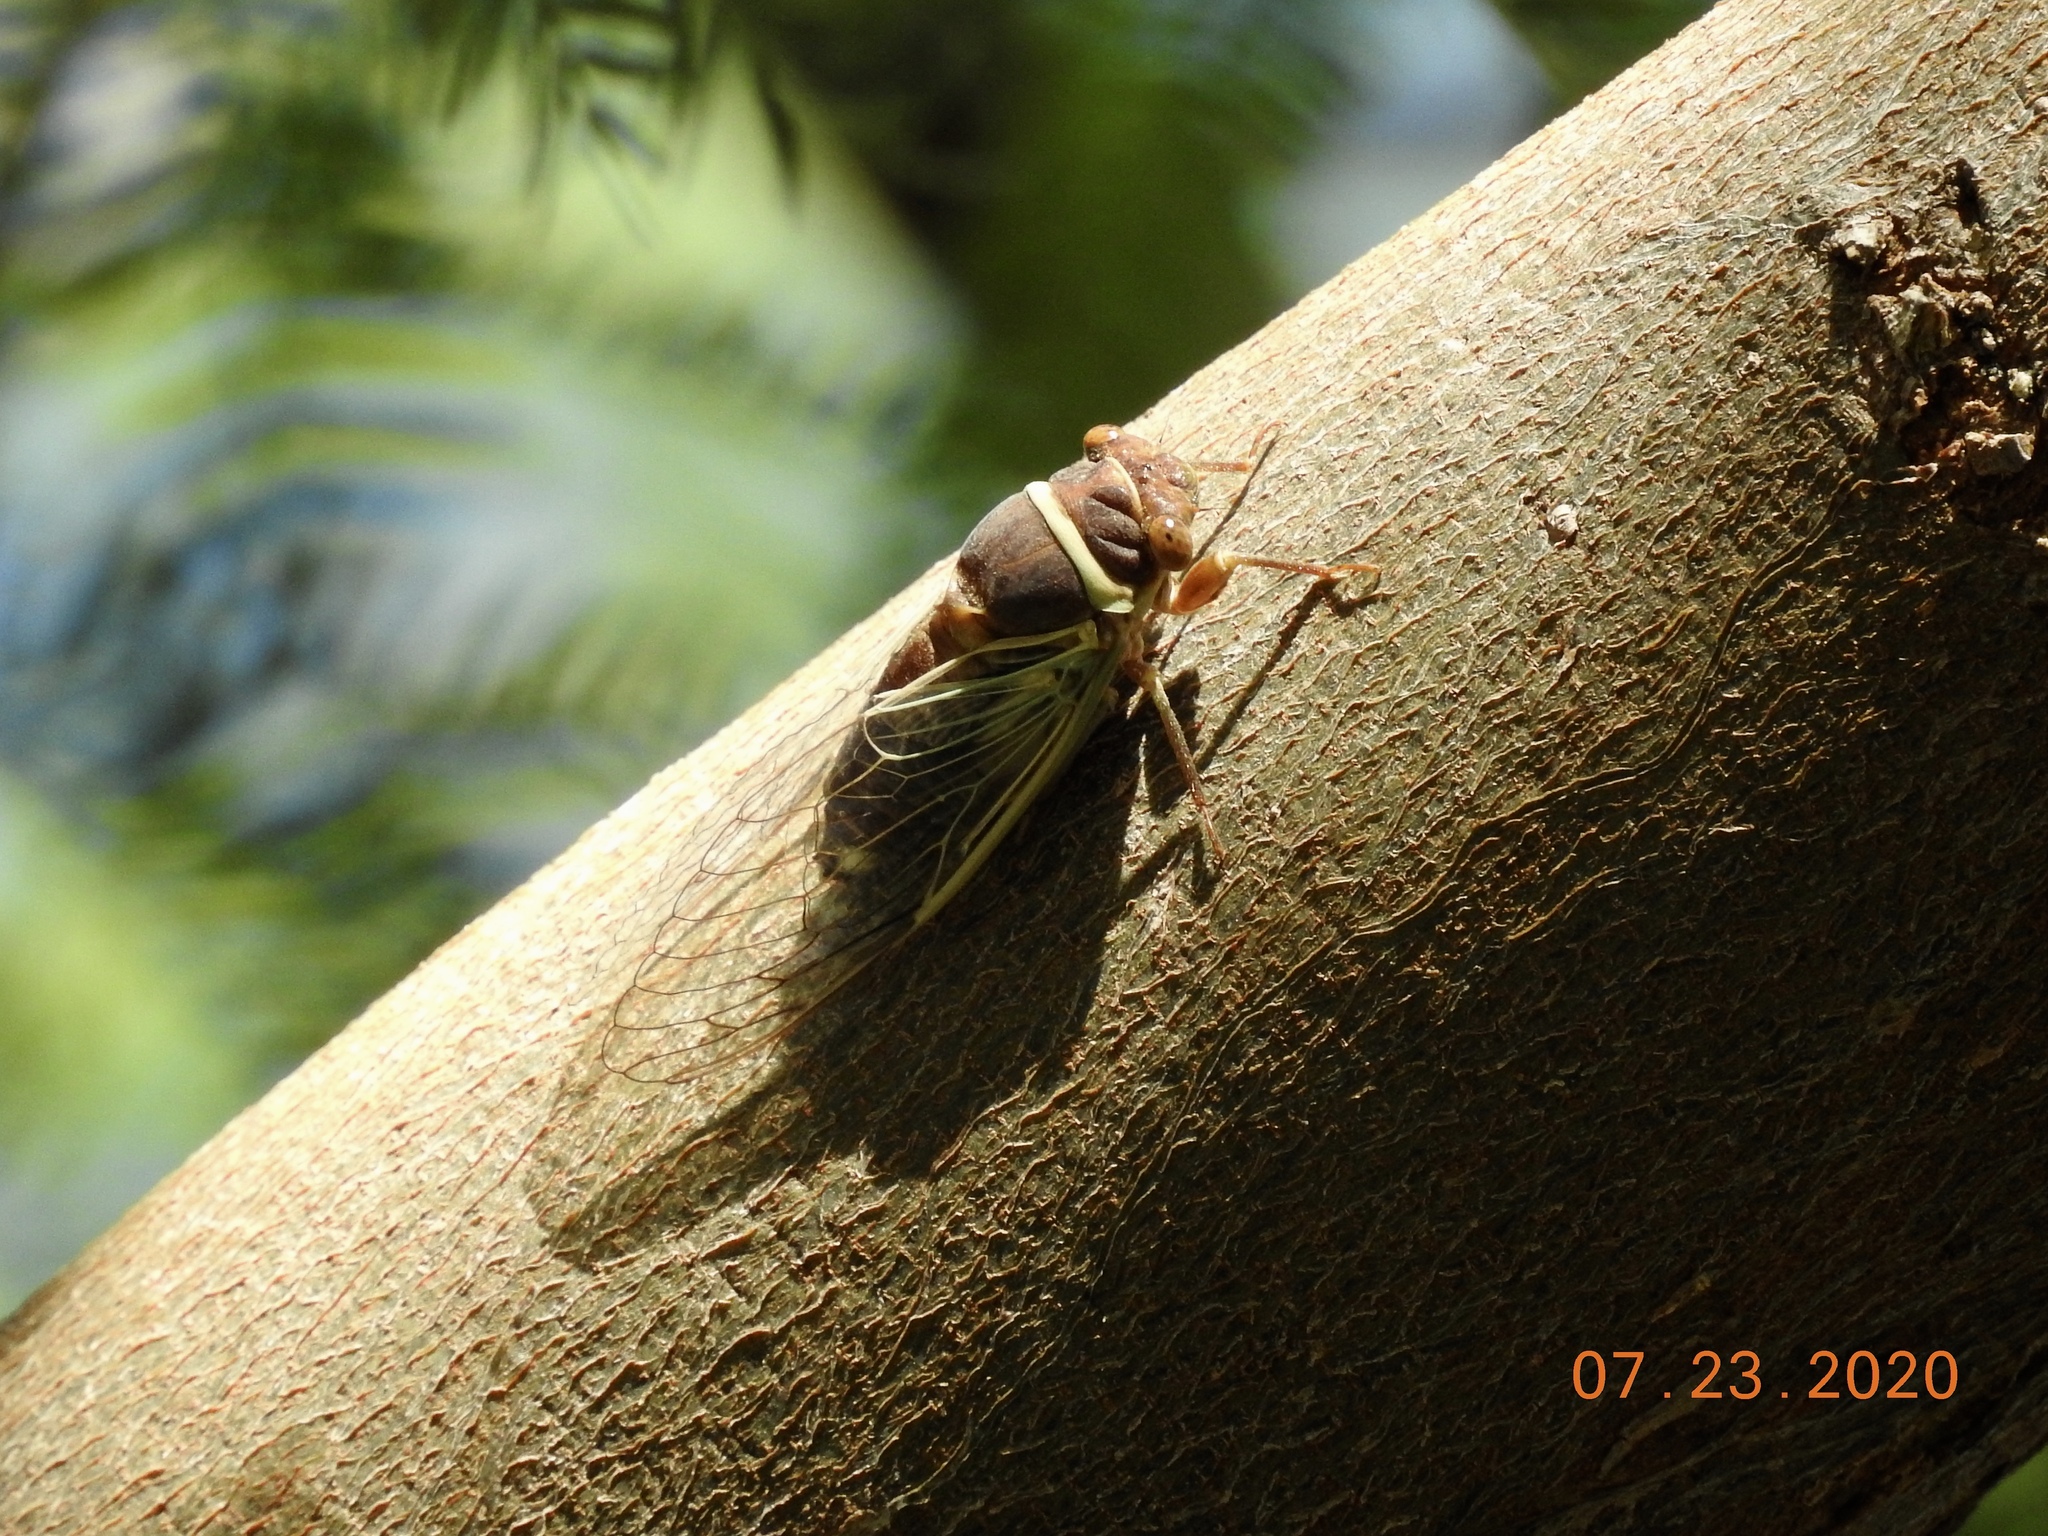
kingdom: Animalia
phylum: Arthropoda
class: Insecta
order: Hemiptera
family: Cicadidae
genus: Diceroprocta
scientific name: Diceroprocta apache
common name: Desert cicada
